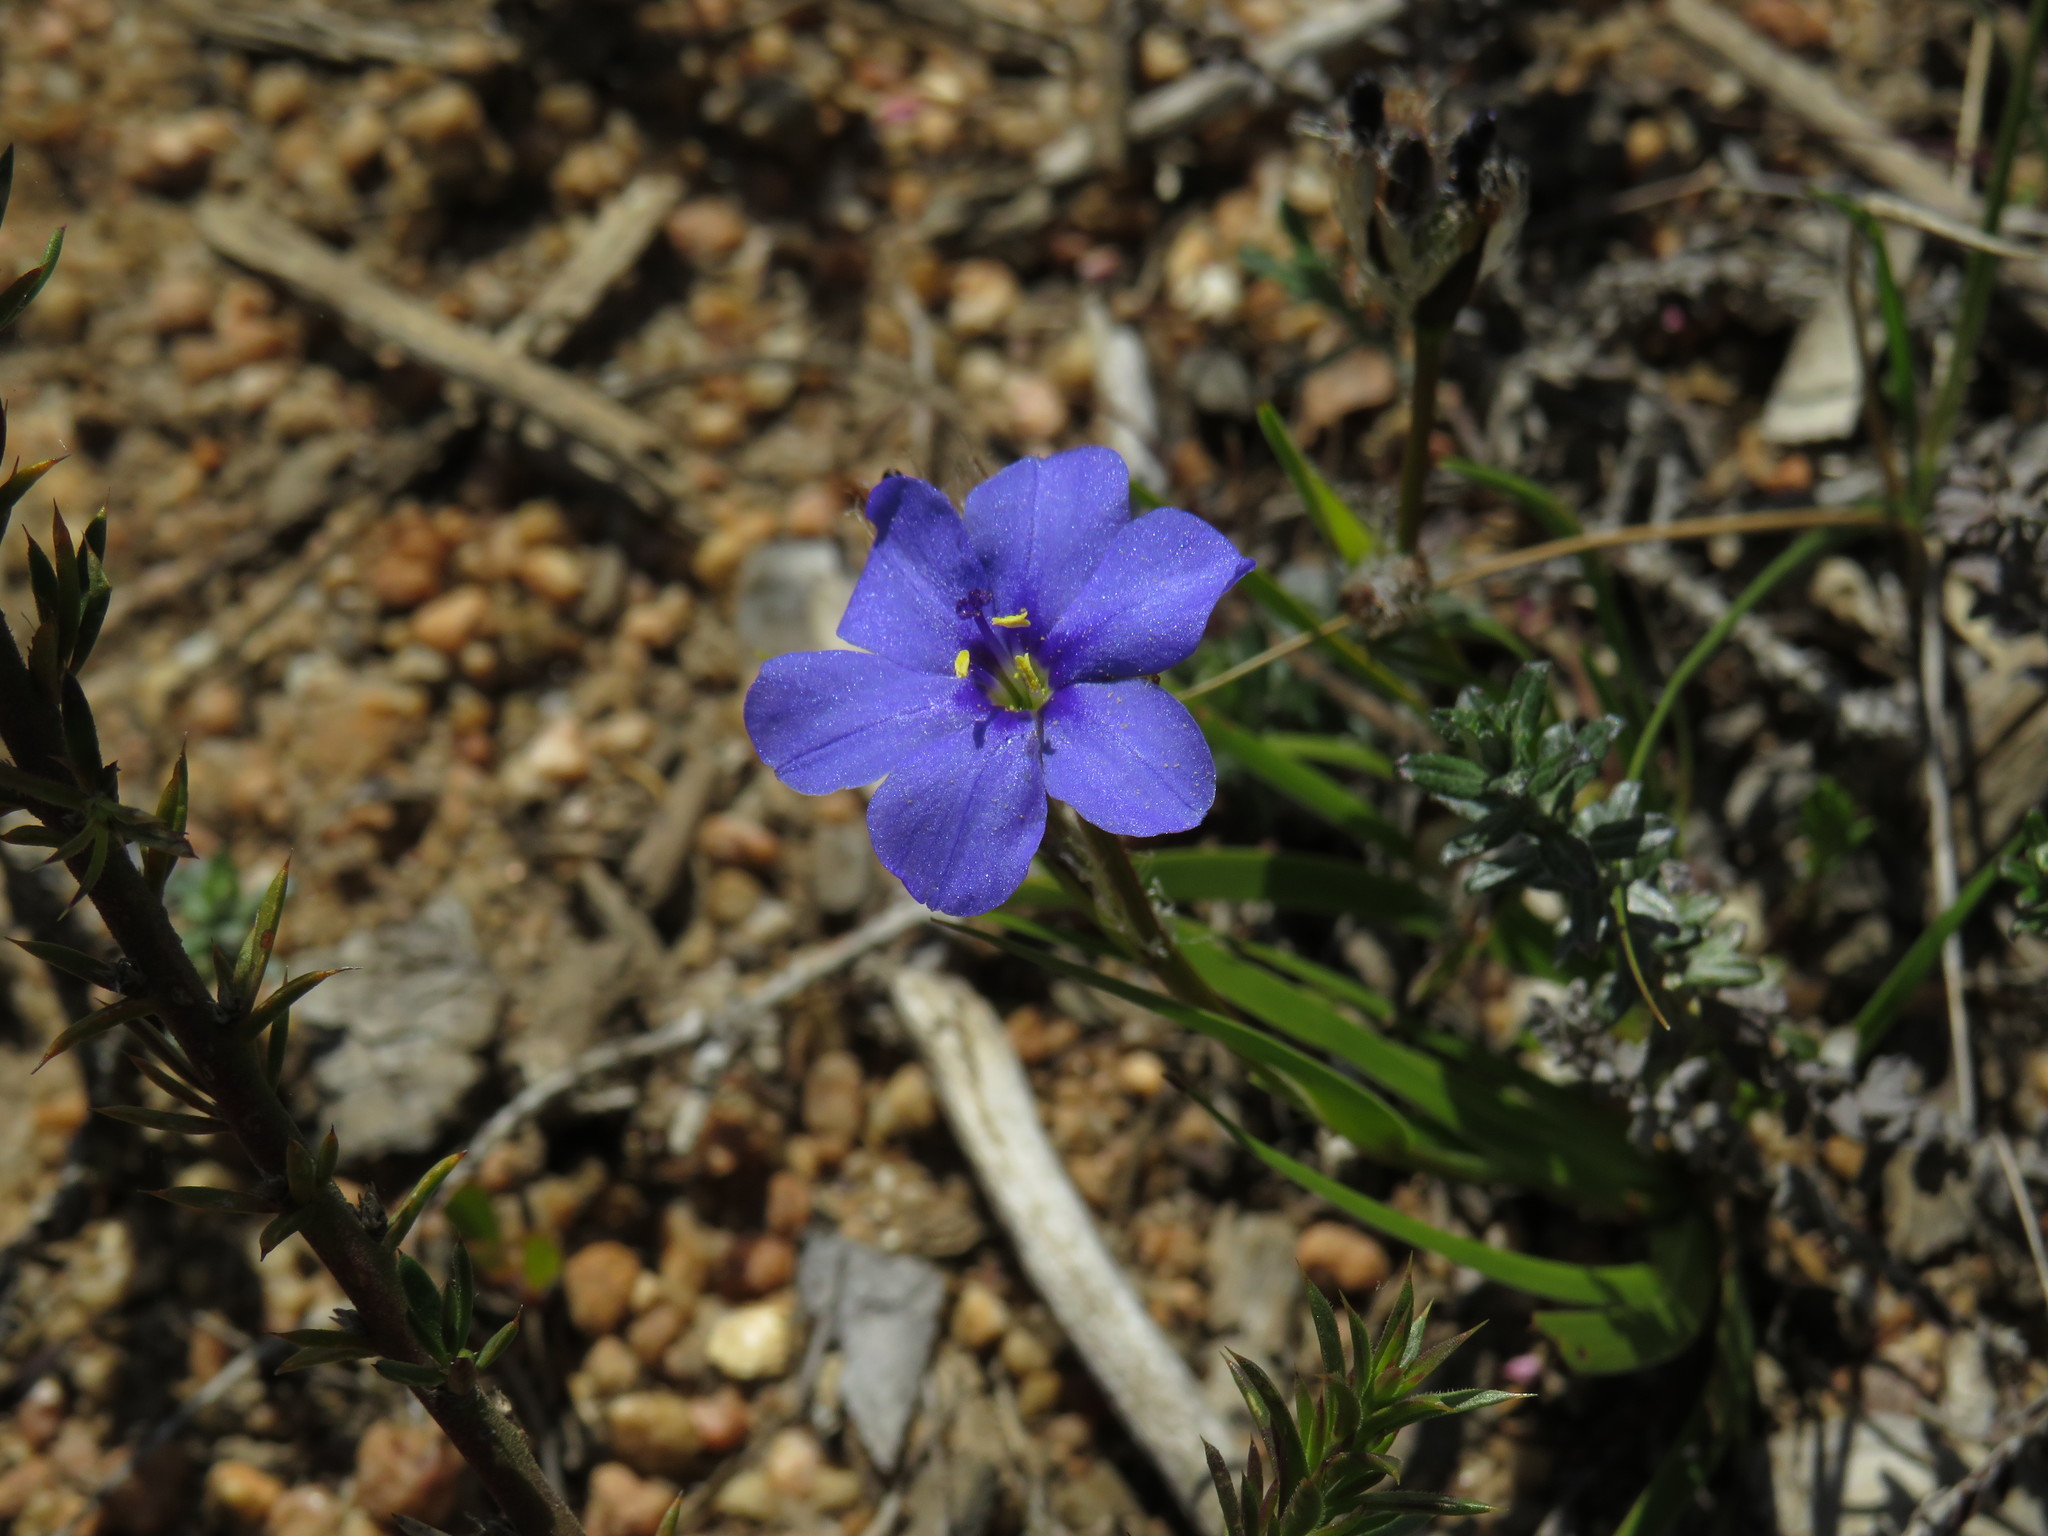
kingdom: Plantae
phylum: Tracheophyta
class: Liliopsida
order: Asparagales
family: Iridaceae
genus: Aristea
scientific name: Aristea africana
